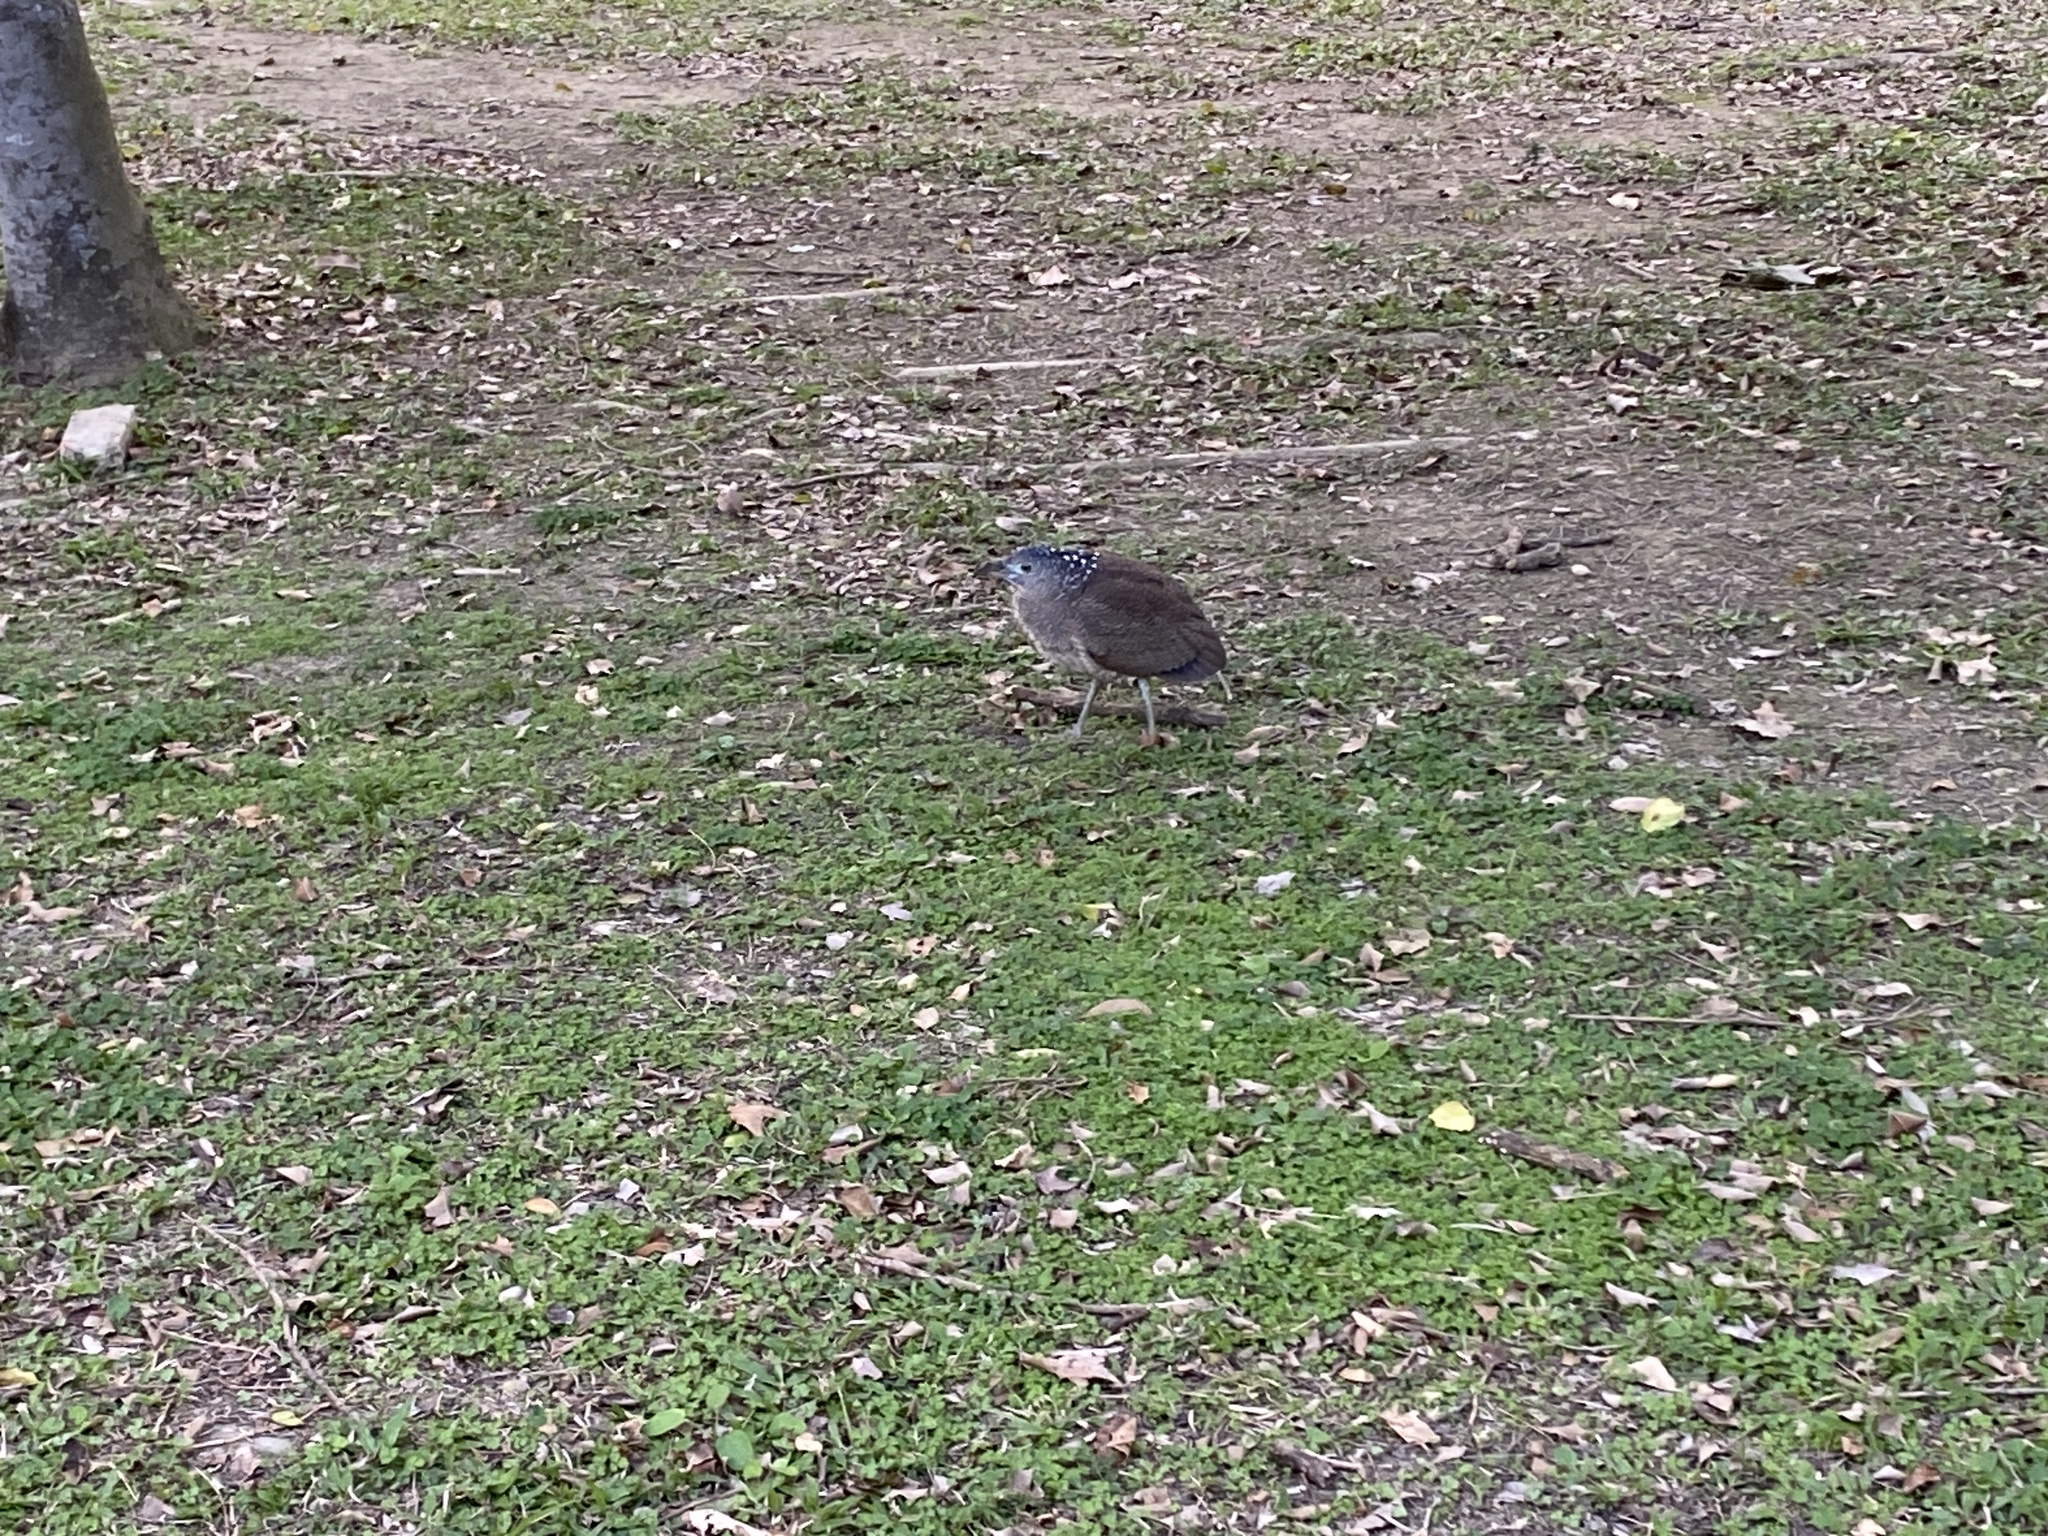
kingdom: Animalia
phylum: Chordata
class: Aves
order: Pelecaniformes
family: Ardeidae
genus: Gorsachius
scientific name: Gorsachius melanolophus
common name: Malayan night heron
